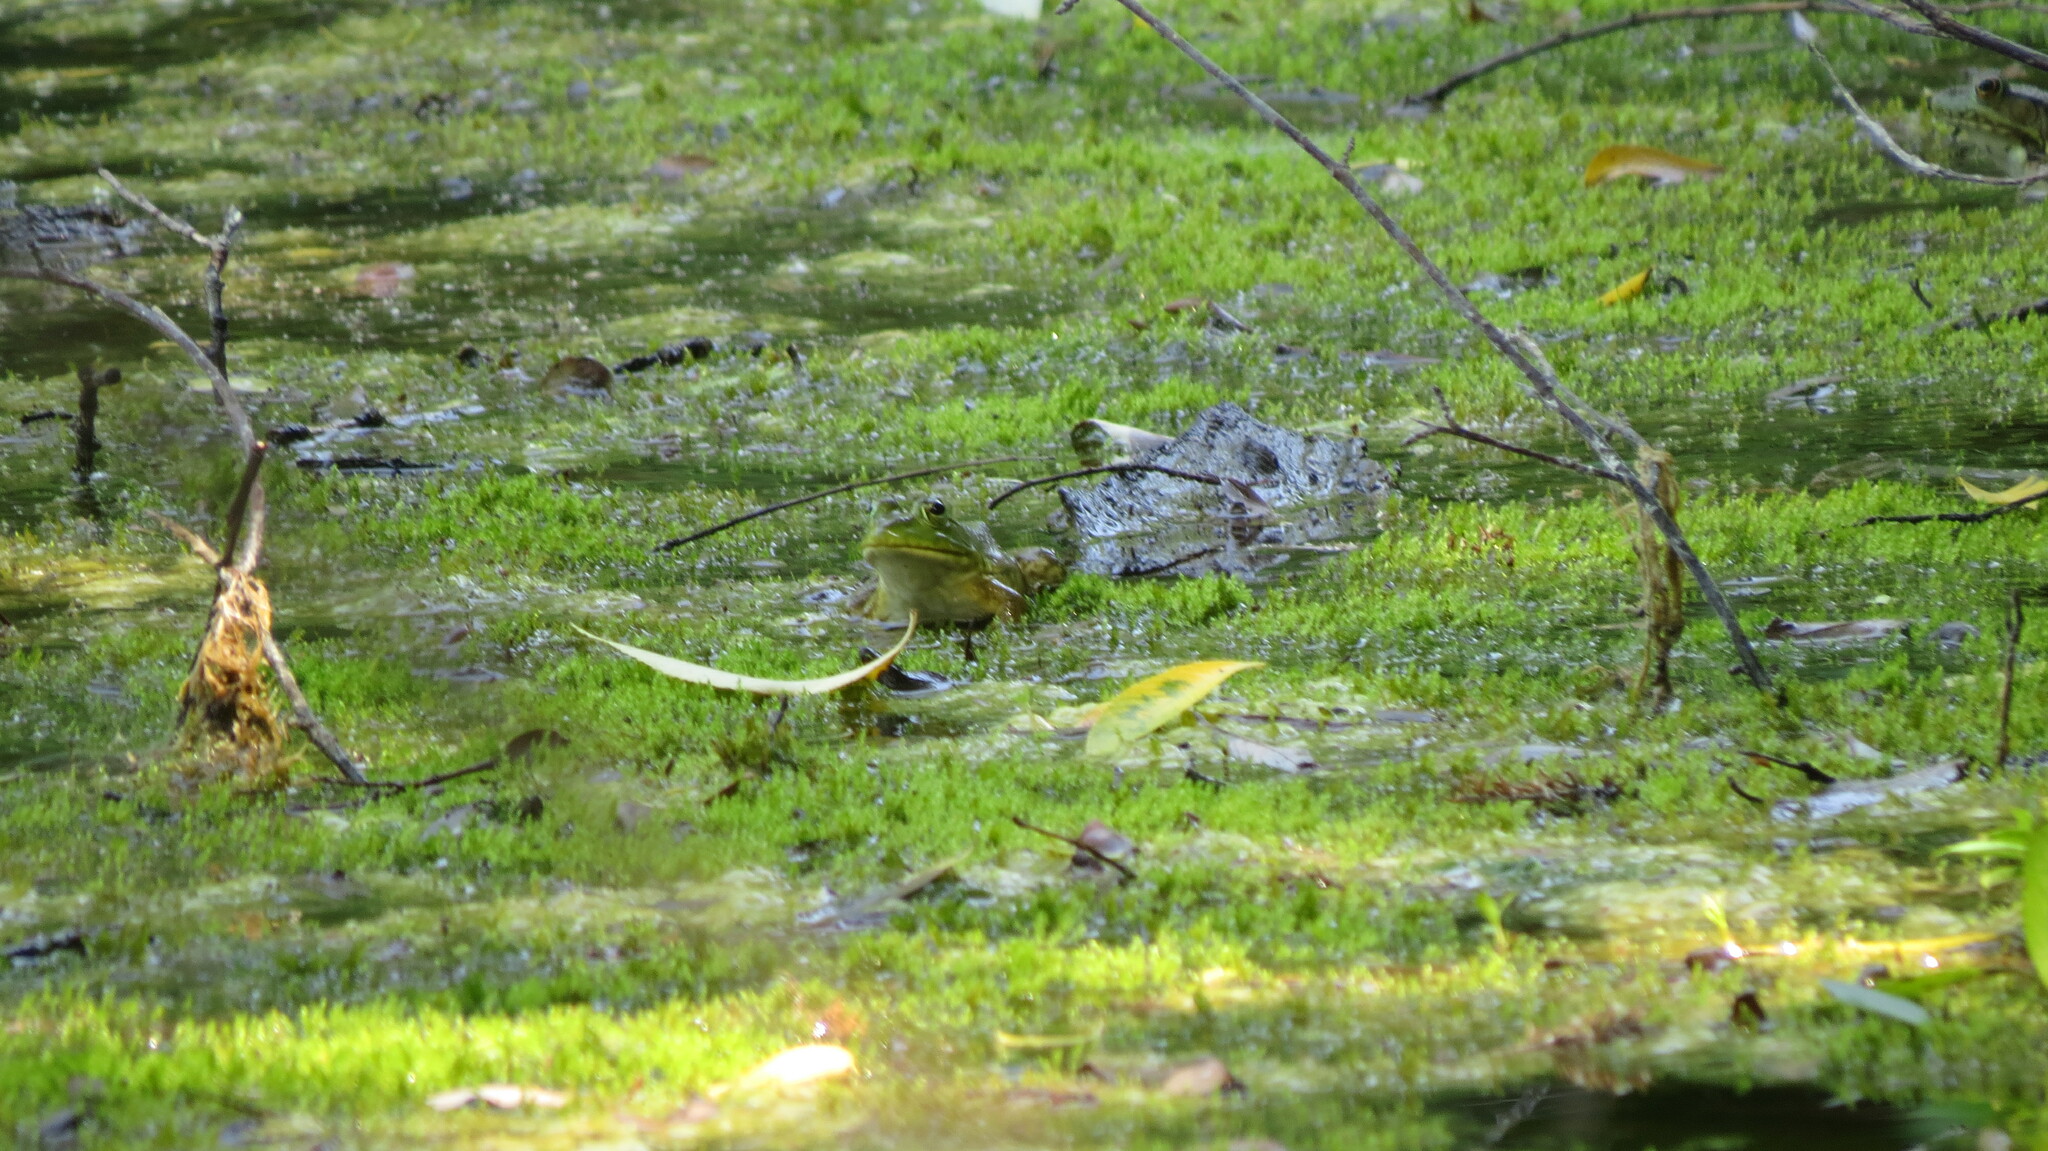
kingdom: Animalia
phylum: Chordata
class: Amphibia
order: Anura
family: Ranidae
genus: Lithobates
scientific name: Lithobates catesbeianus
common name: American bullfrog
